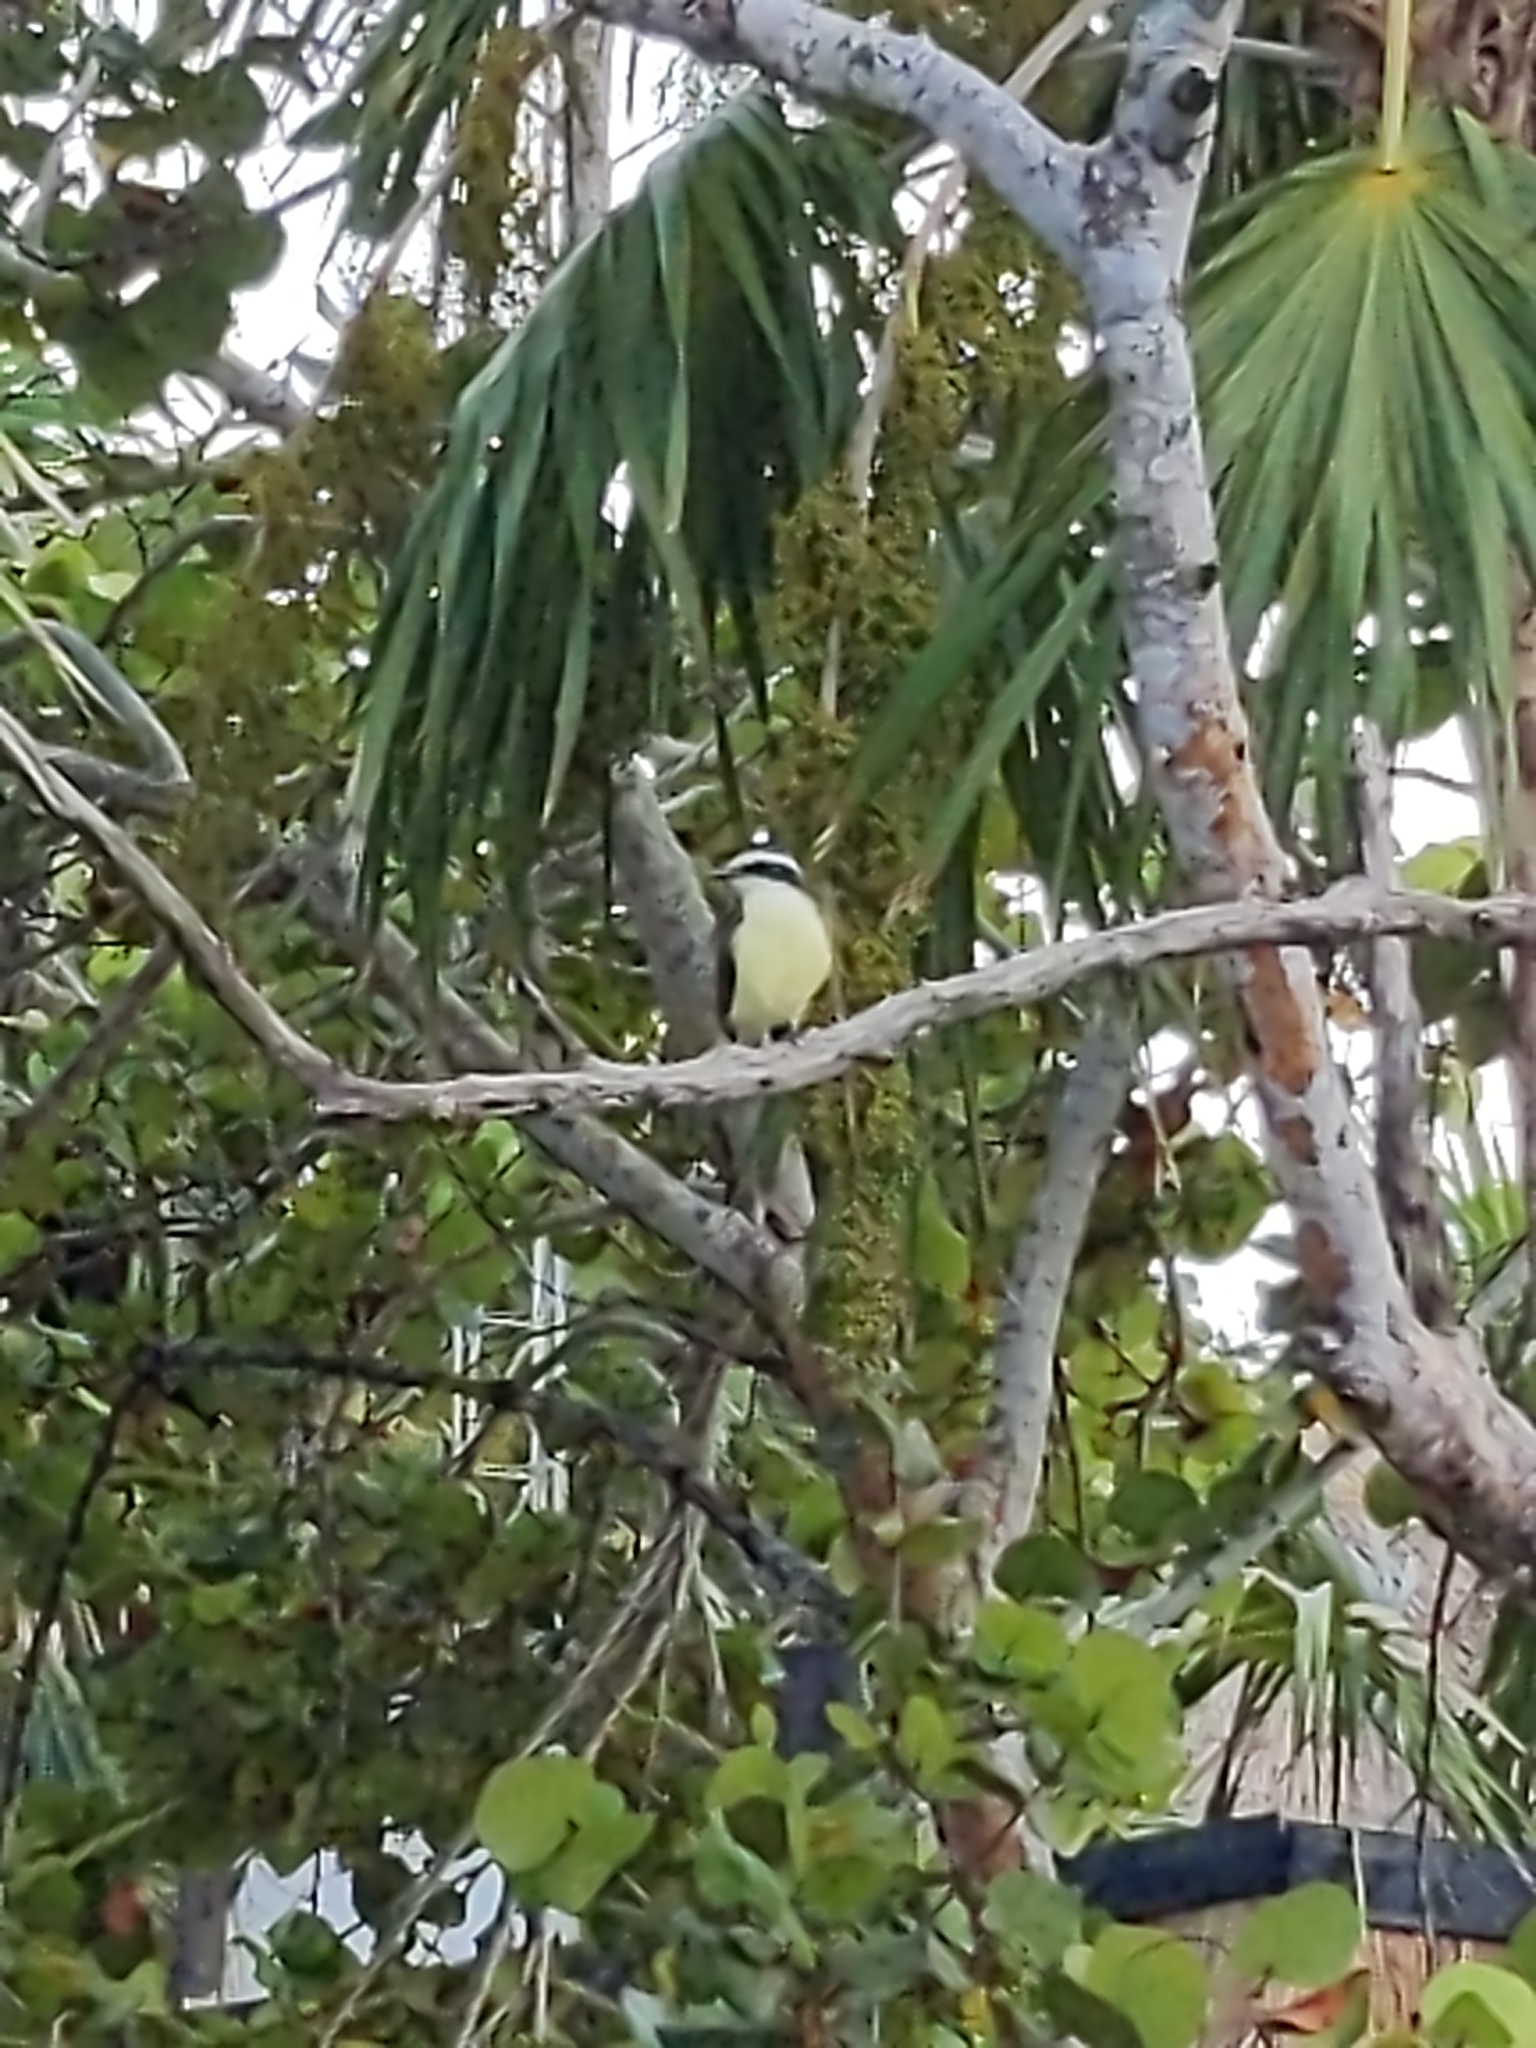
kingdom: Animalia
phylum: Chordata
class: Aves
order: Passeriformes
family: Tyrannidae
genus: Pitangus
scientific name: Pitangus sulphuratus
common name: Great kiskadee
